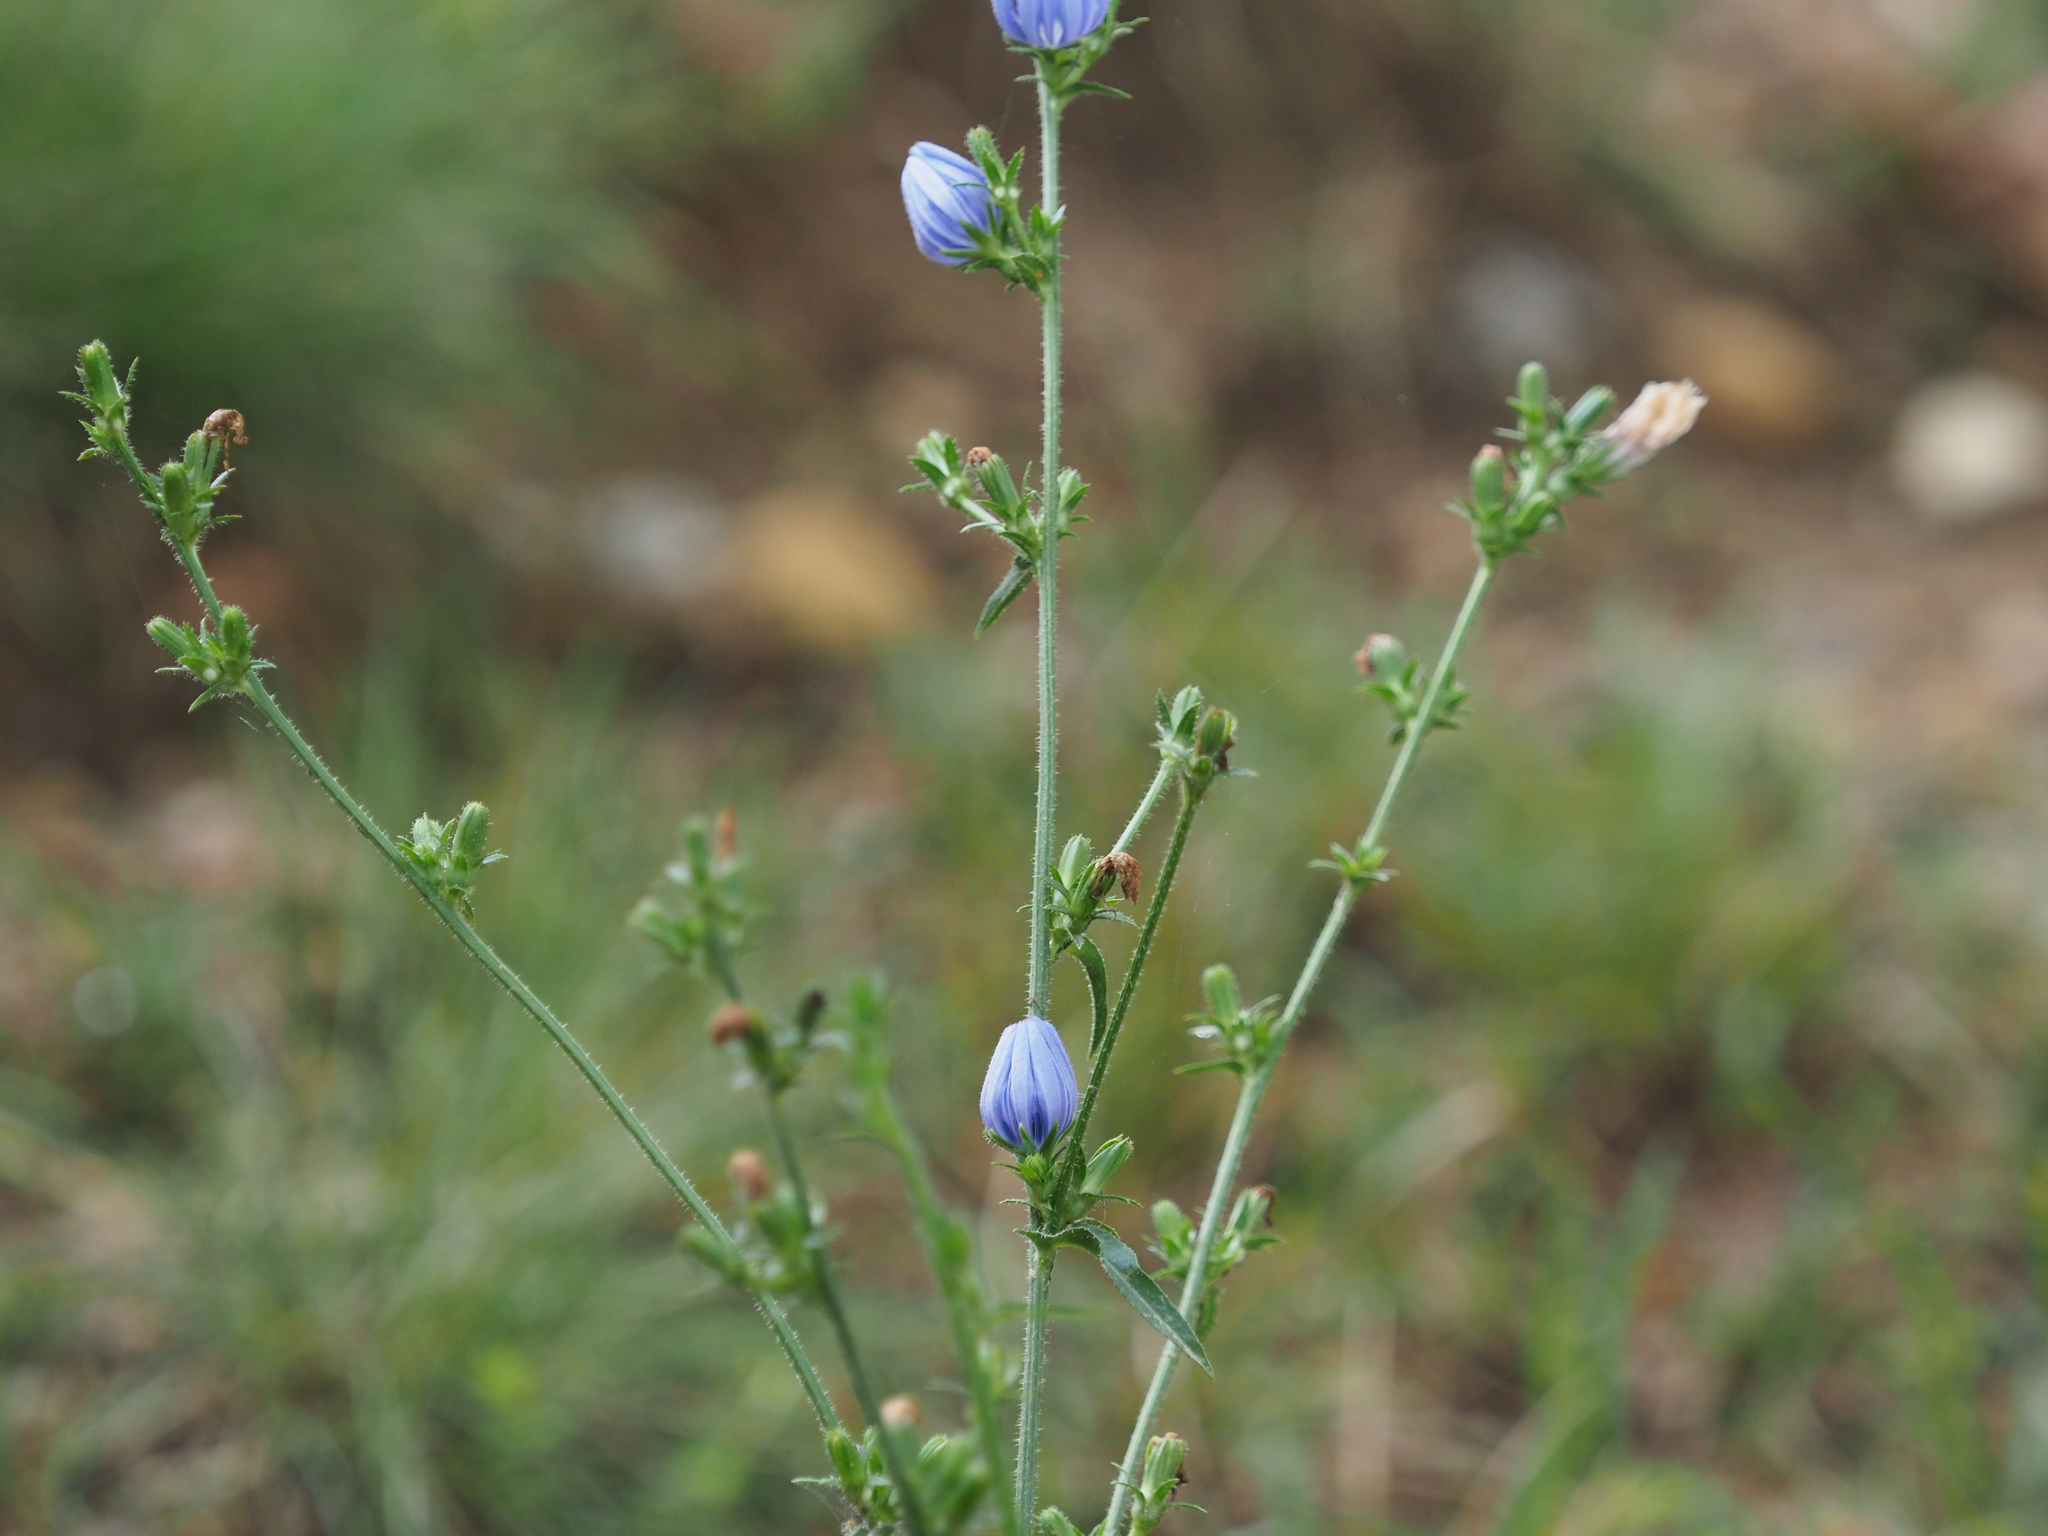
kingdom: Plantae
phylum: Tracheophyta
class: Magnoliopsida
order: Asterales
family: Asteraceae
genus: Cichorium
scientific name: Cichorium intybus
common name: Chicory
